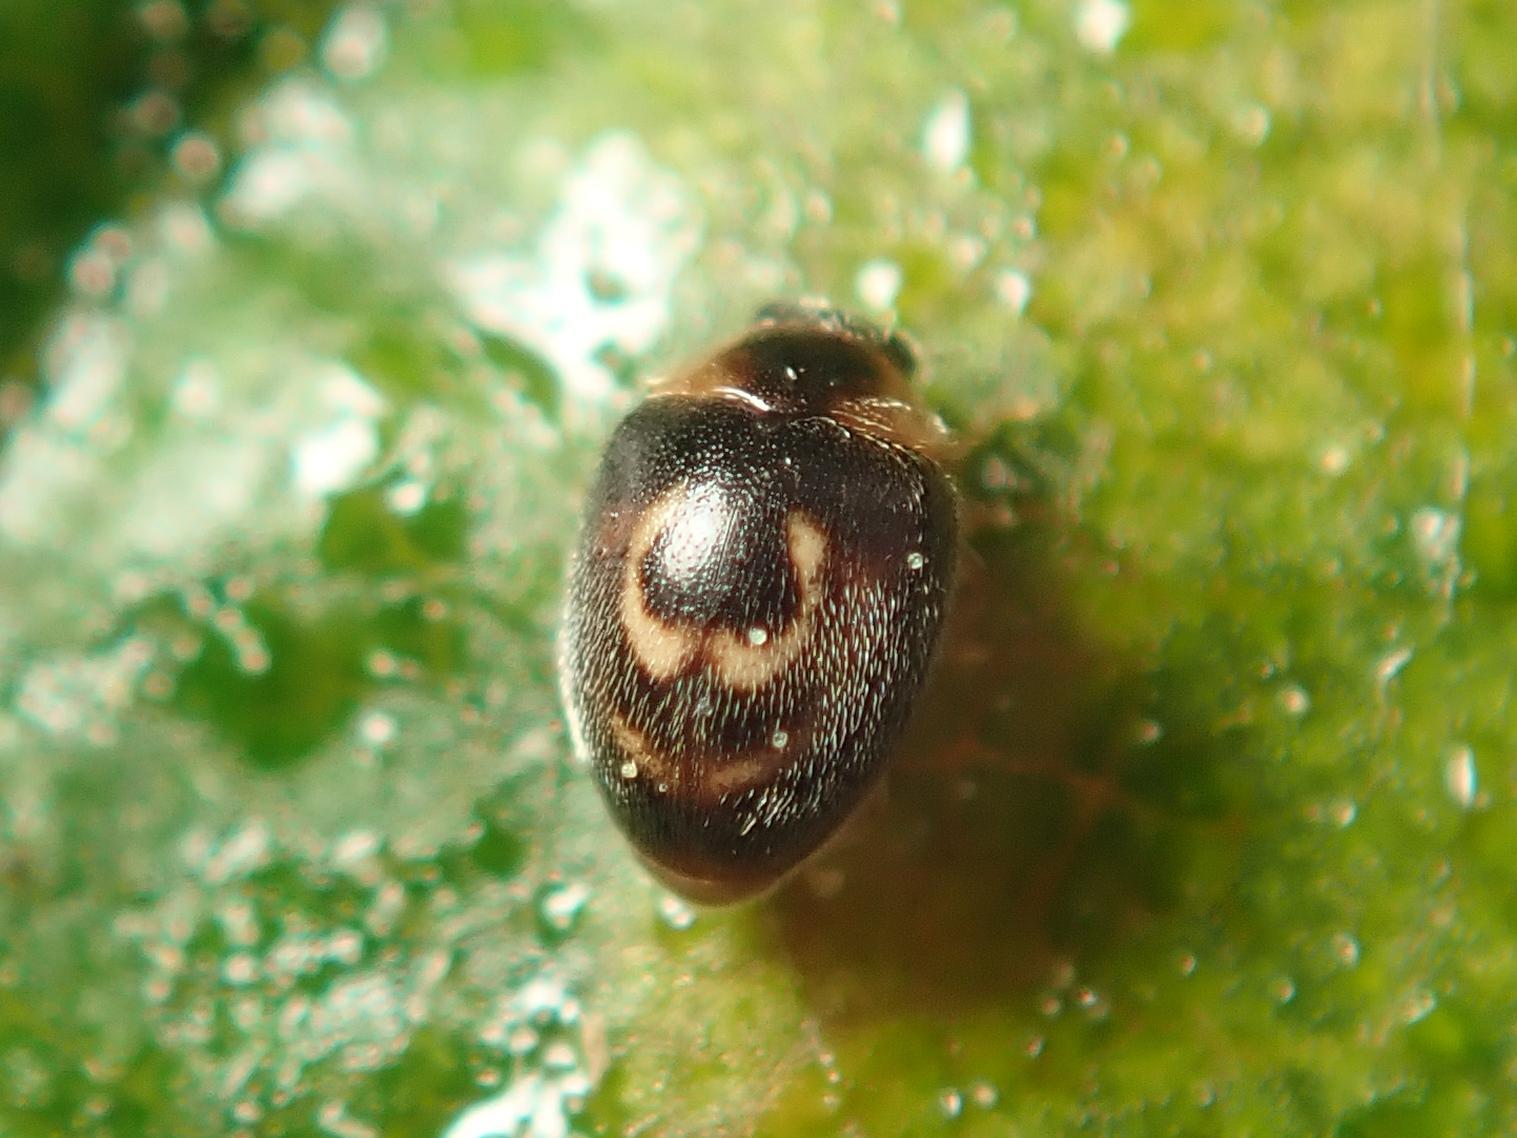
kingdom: Animalia
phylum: Arthropoda
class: Insecta
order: Coleoptera
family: Coccinellidae
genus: Clitostethus
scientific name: Clitostethus arcuatus
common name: Ladybird beetle
